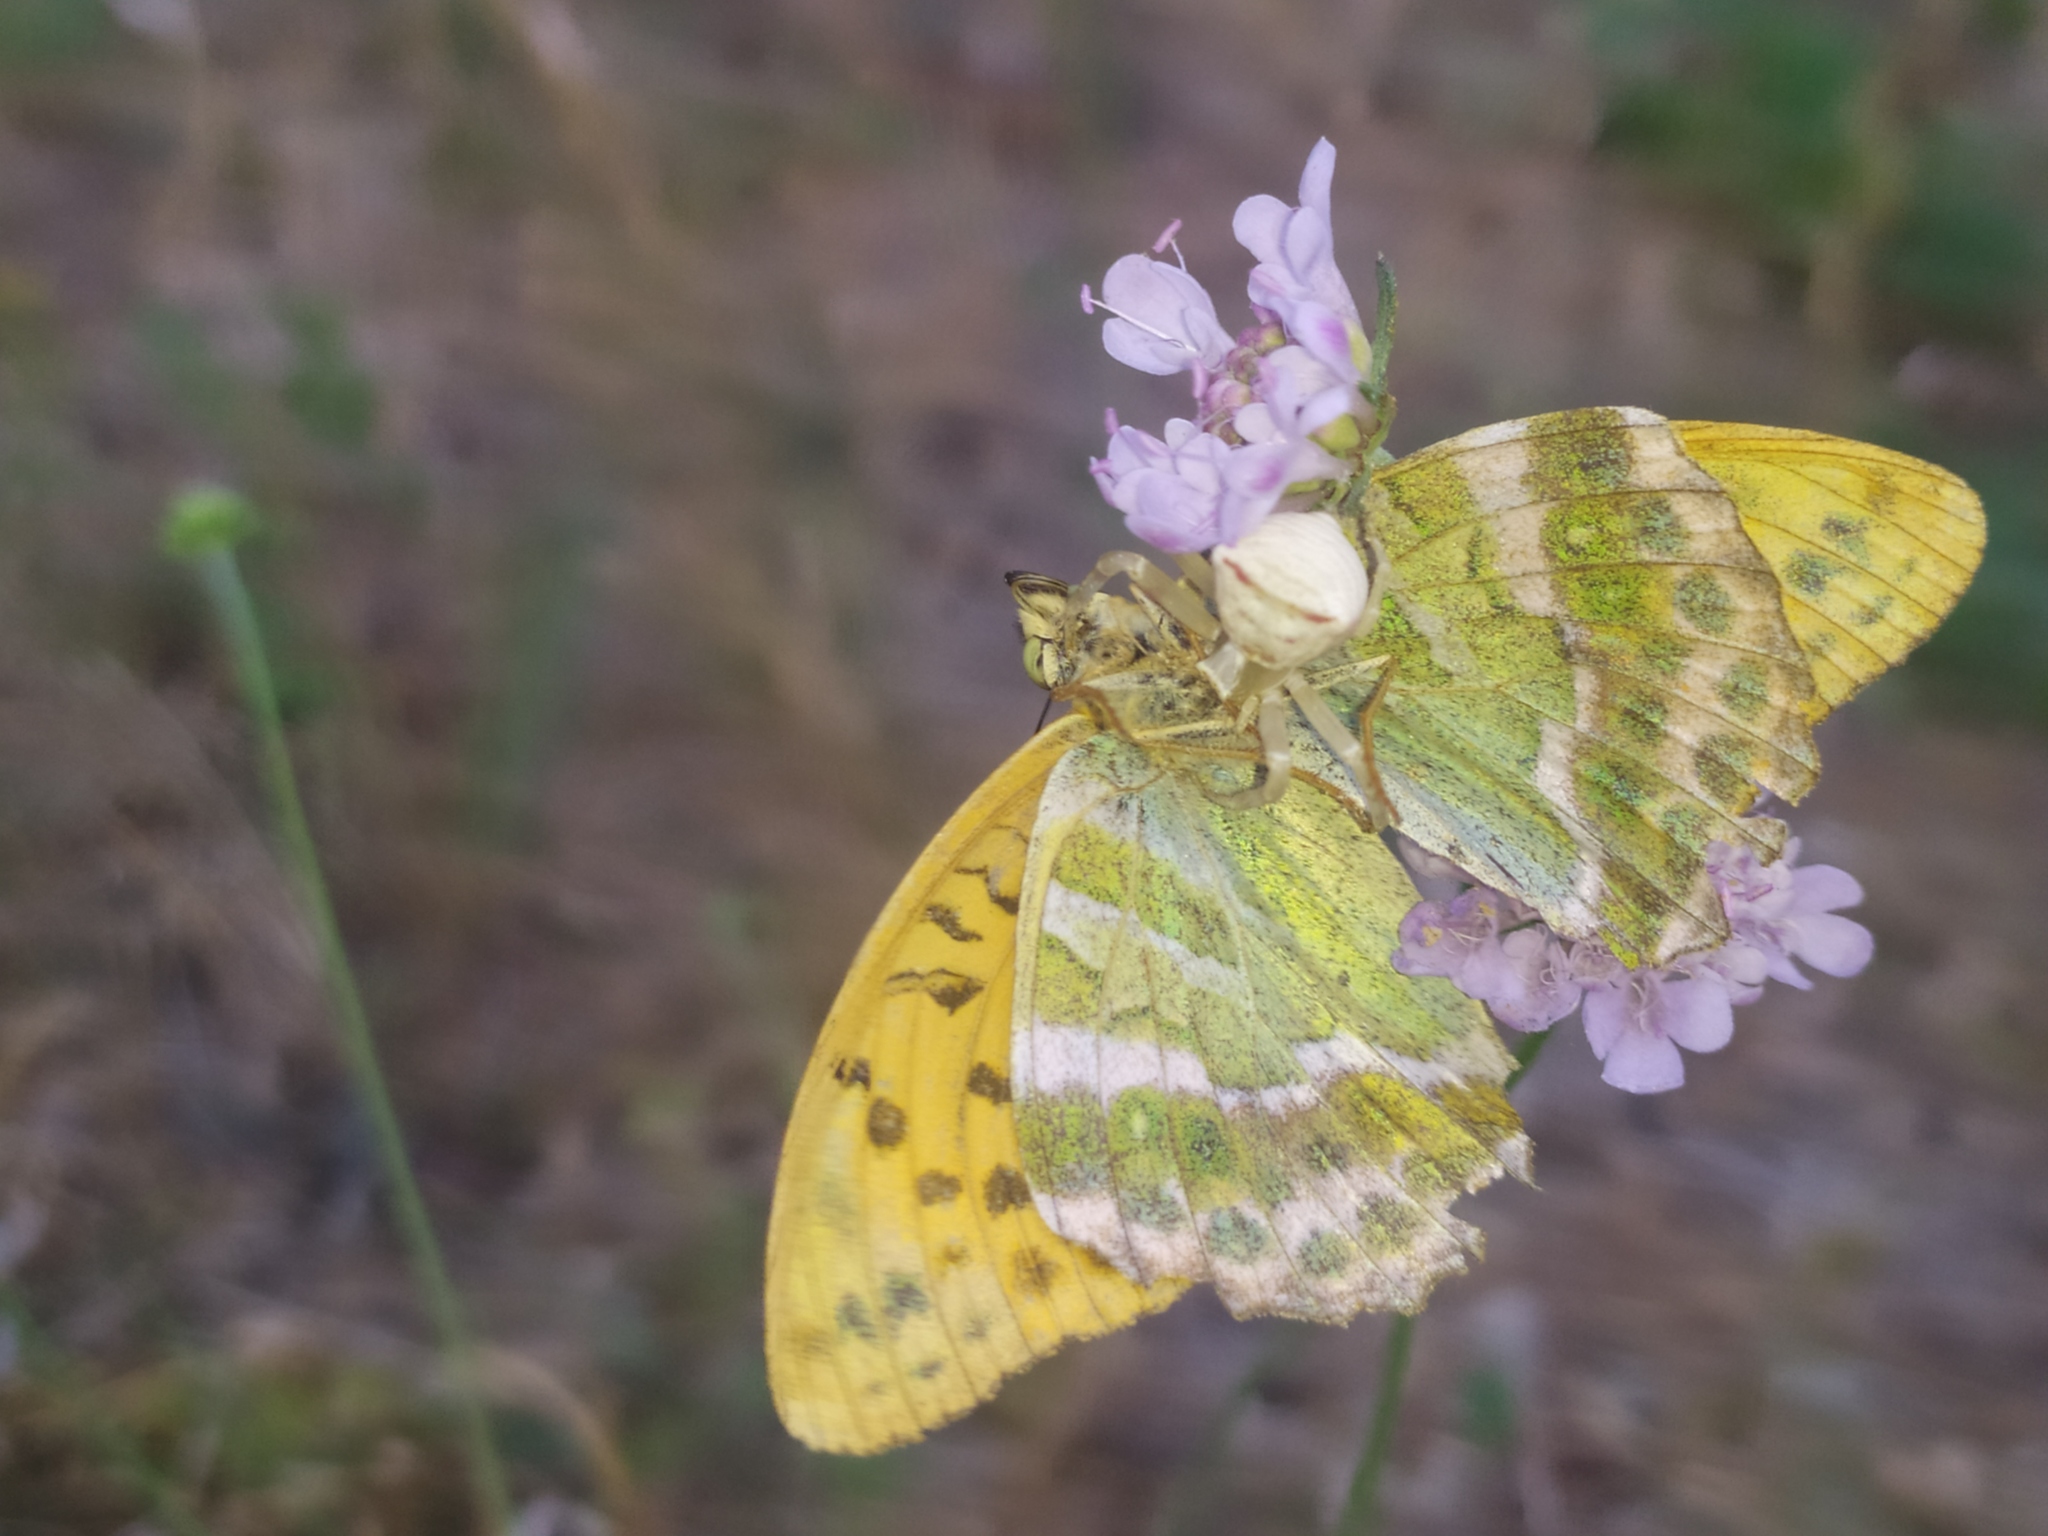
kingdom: Animalia
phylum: Arthropoda
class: Insecta
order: Lepidoptera
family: Nymphalidae
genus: Argynnis
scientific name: Argynnis paphia
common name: Silver-washed fritillary
